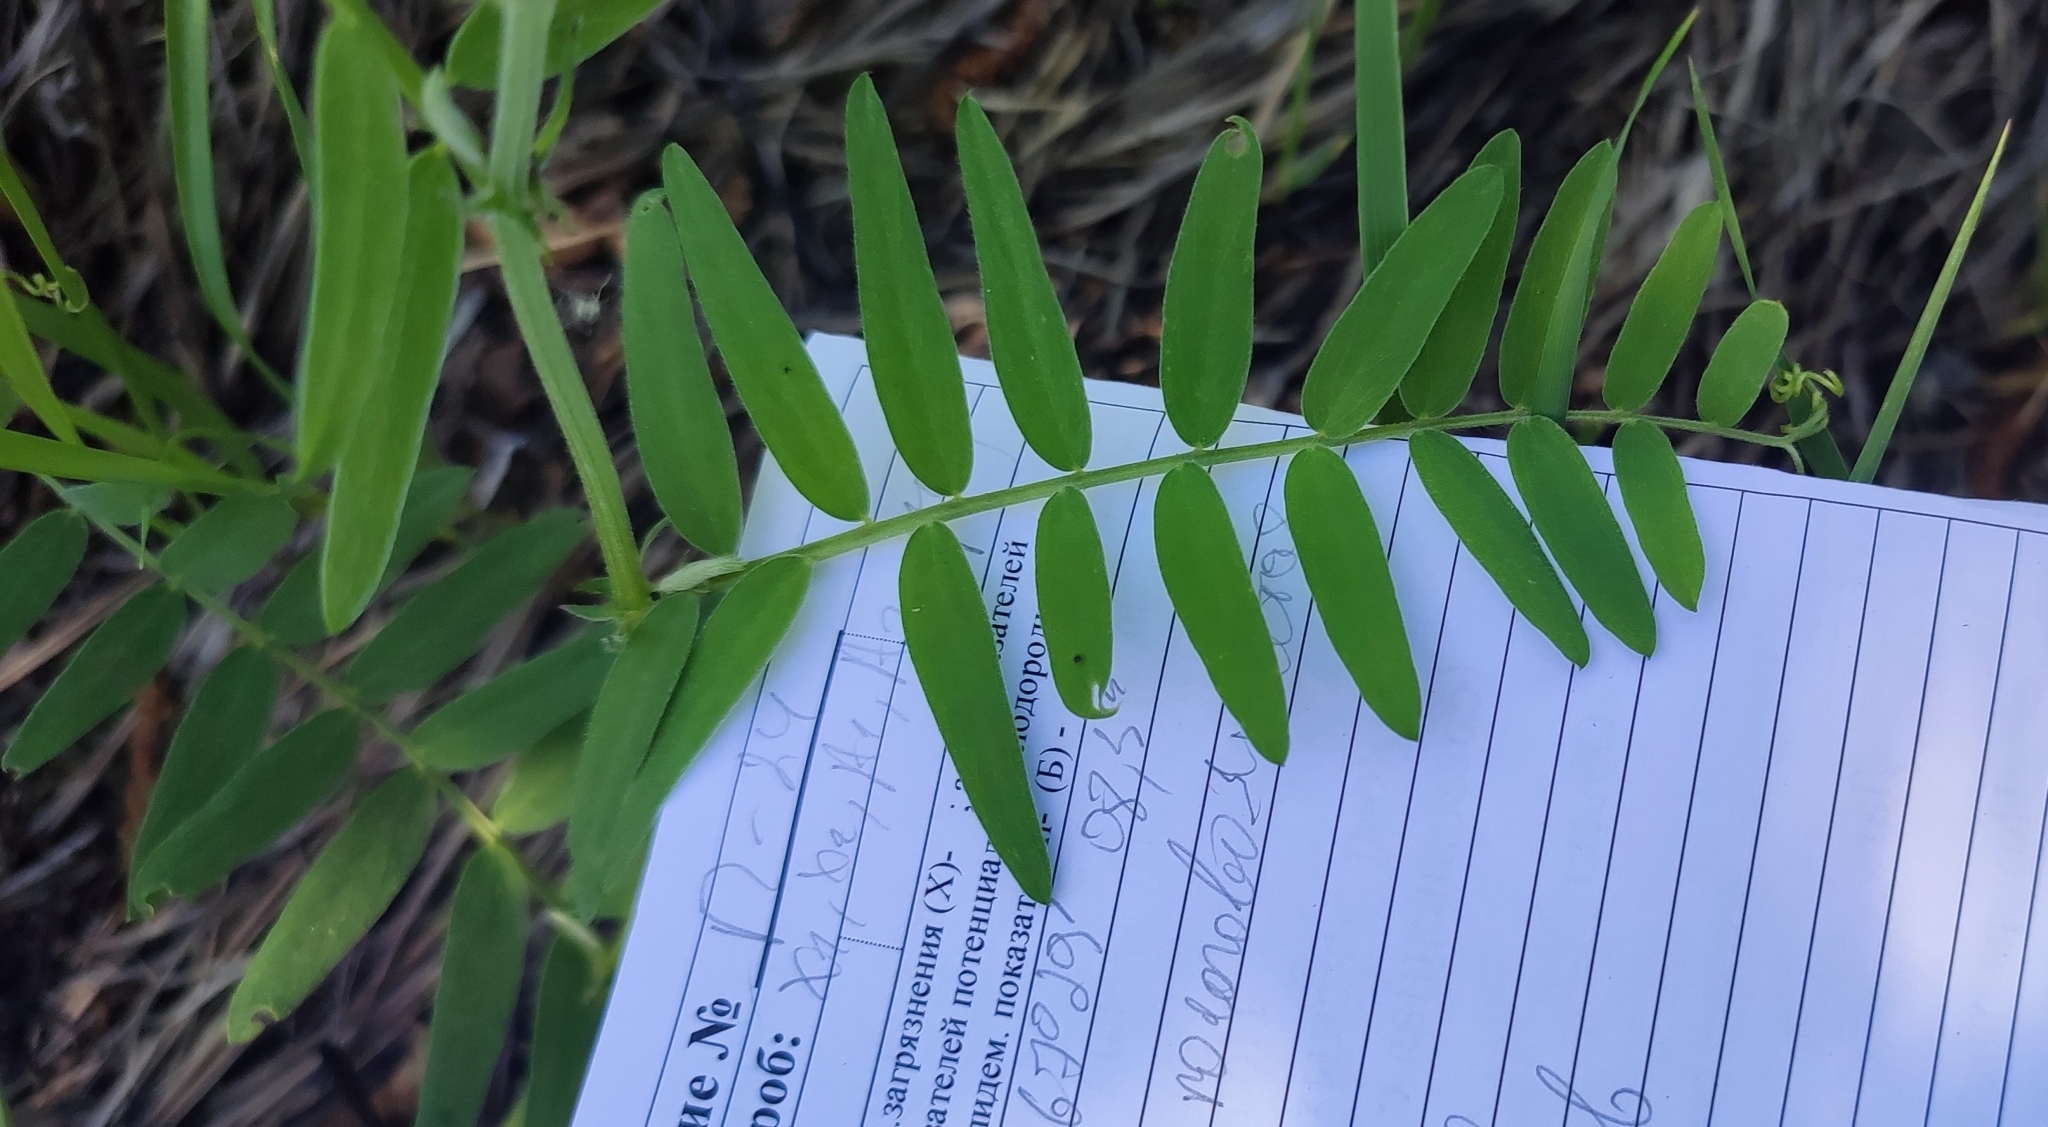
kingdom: Plantae
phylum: Tracheophyta
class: Magnoliopsida
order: Fabales
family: Fabaceae
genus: Vicia
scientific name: Vicia cracca
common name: Bird vetch
